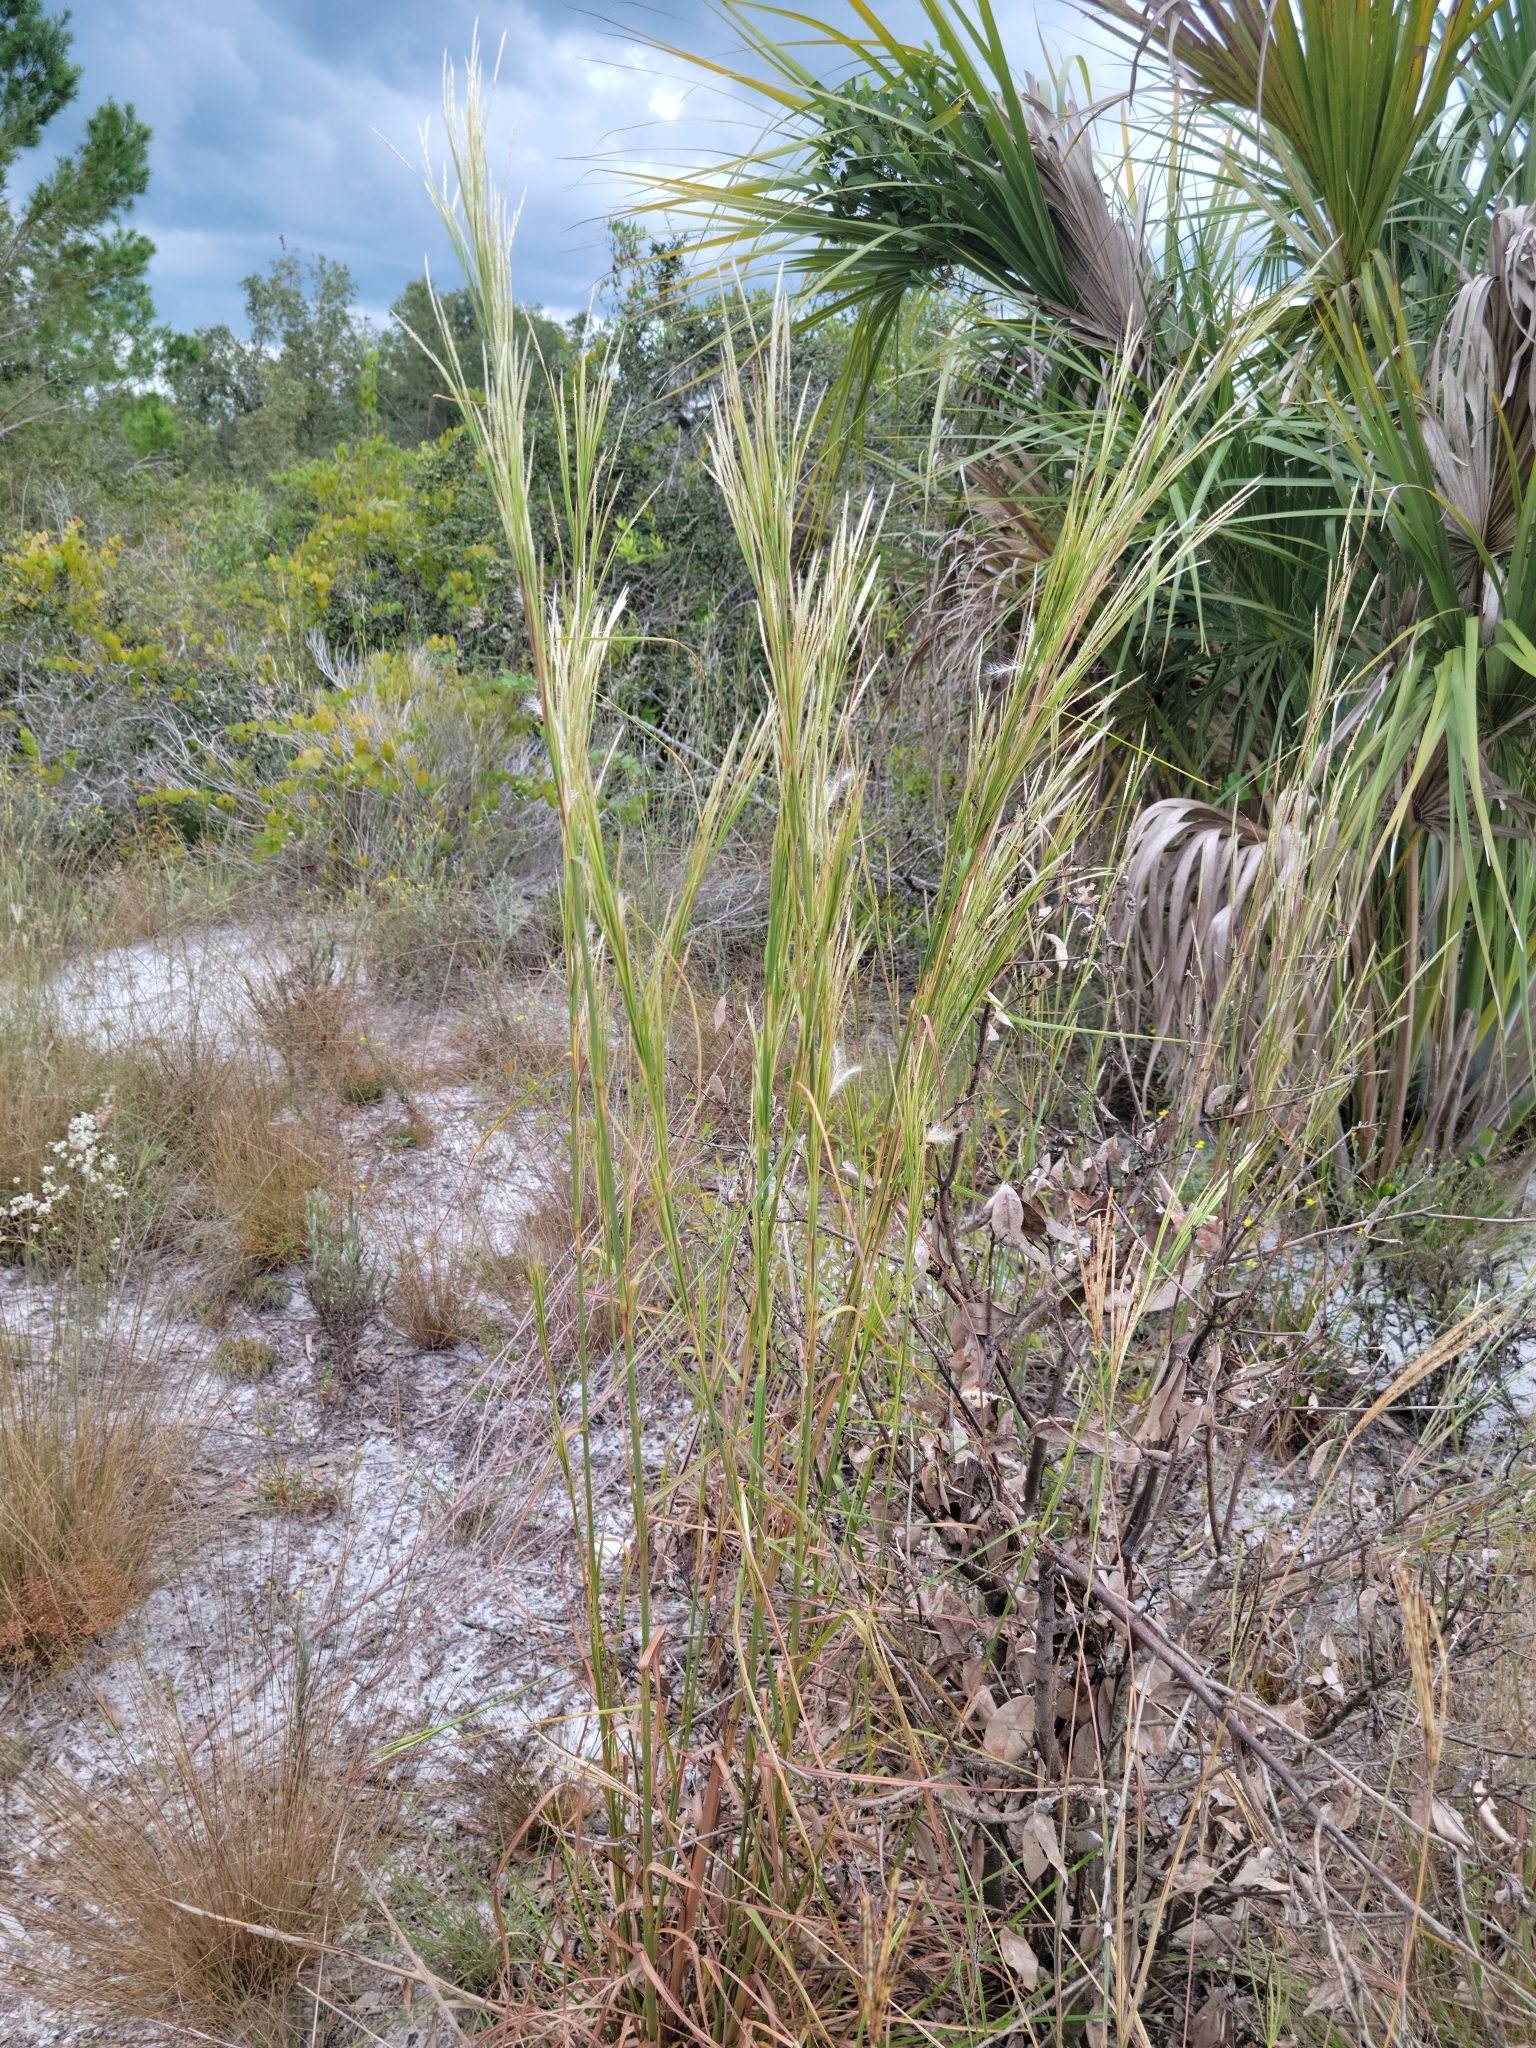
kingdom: Plantae
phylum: Tracheophyta
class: Liliopsida
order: Poales
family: Poaceae
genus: Andropogon
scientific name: Andropogon floridanus
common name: Florida bluestem
